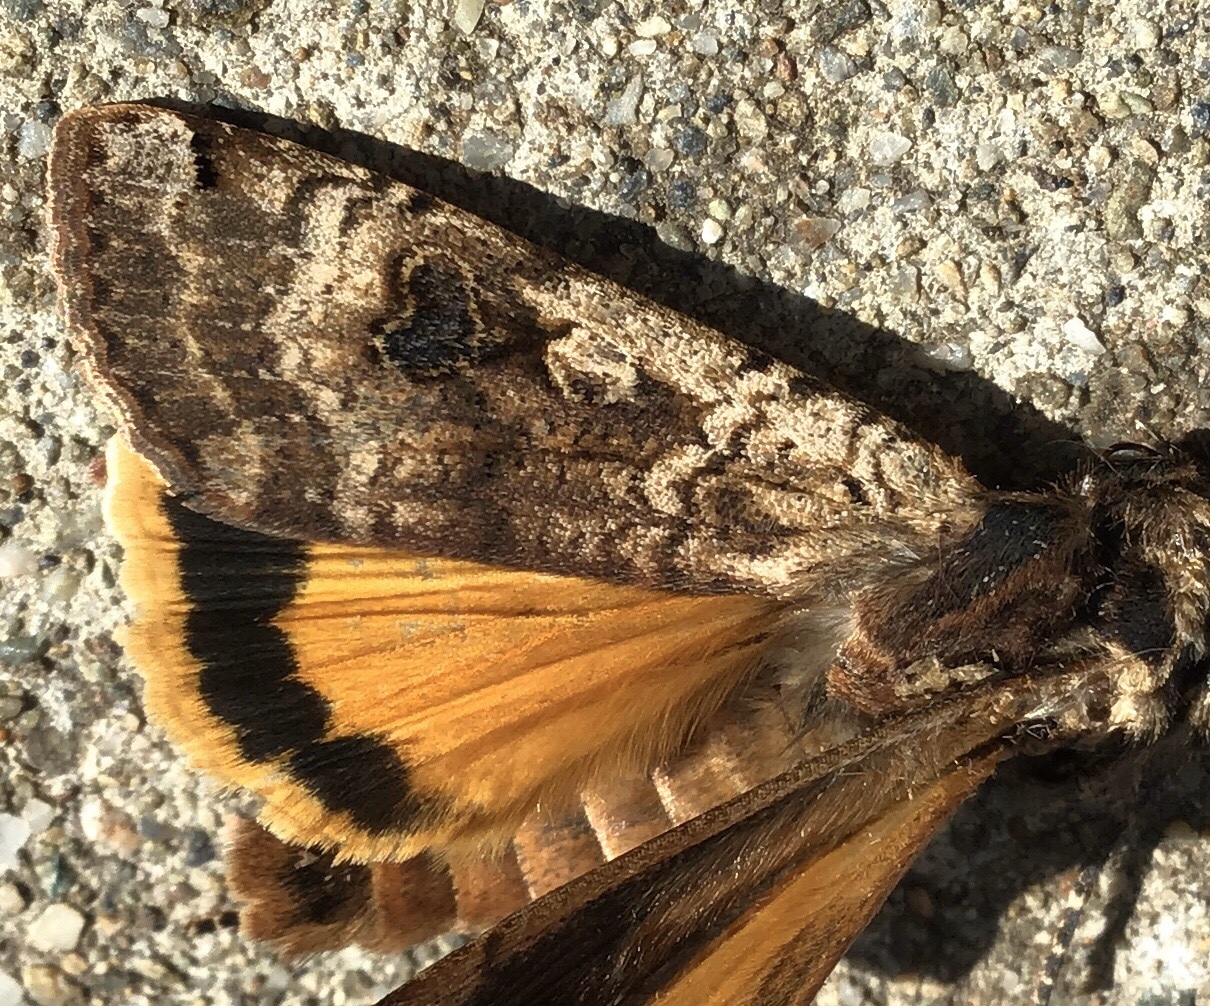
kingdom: Animalia
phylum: Arthropoda
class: Insecta
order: Lepidoptera
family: Noctuidae
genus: Noctua
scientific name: Noctua pronuba
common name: Large yellow underwing
